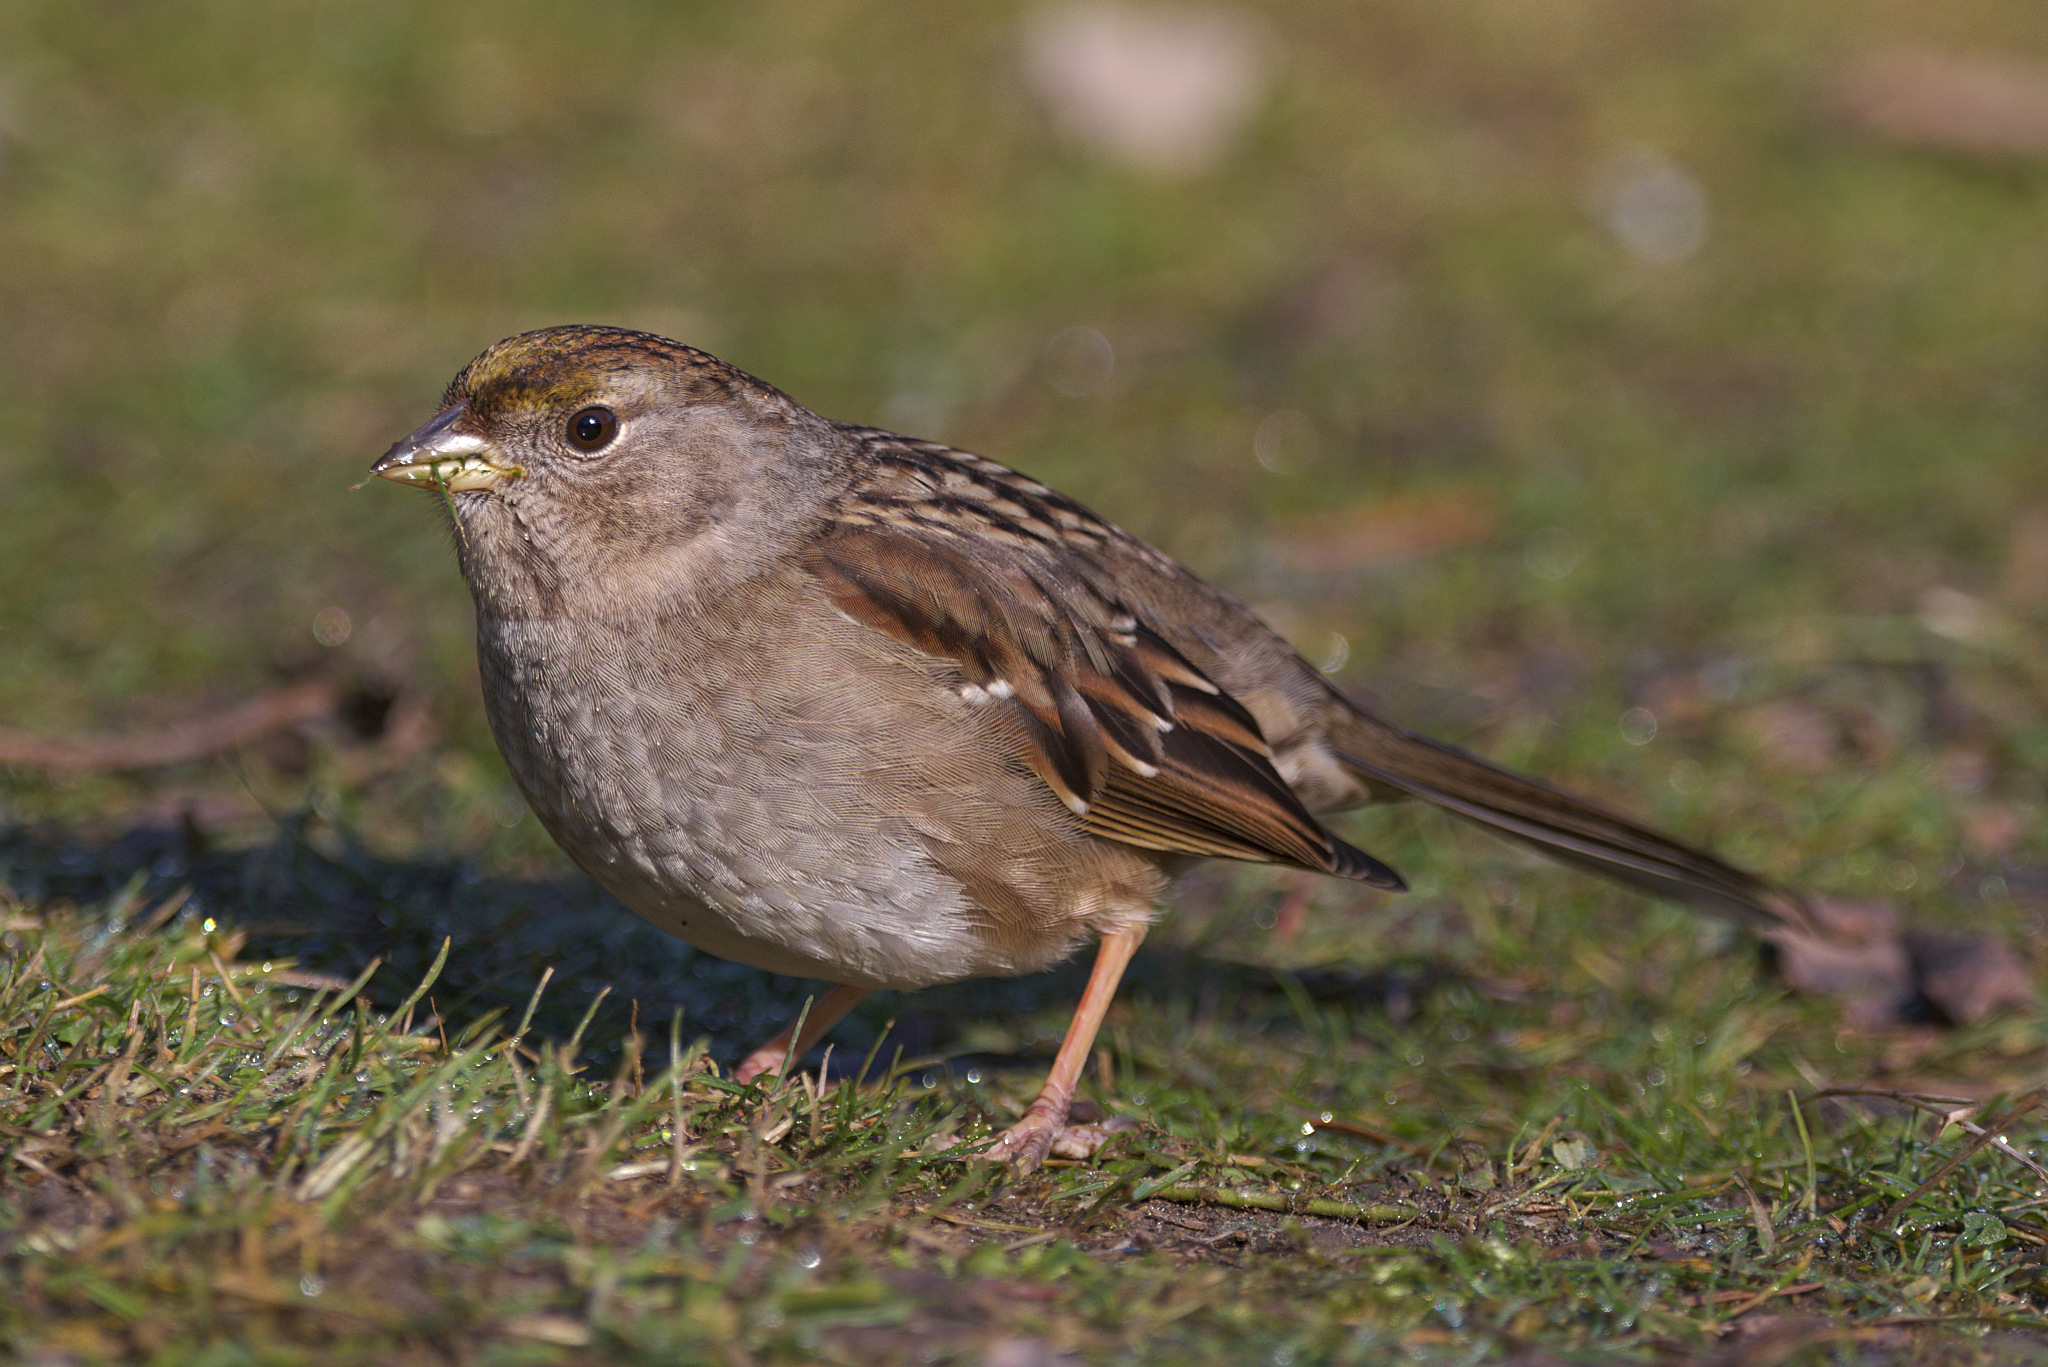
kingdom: Animalia
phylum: Chordata
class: Aves
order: Passeriformes
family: Passerellidae
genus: Zonotrichia
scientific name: Zonotrichia atricapilla
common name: Golden-crowned sparrow
